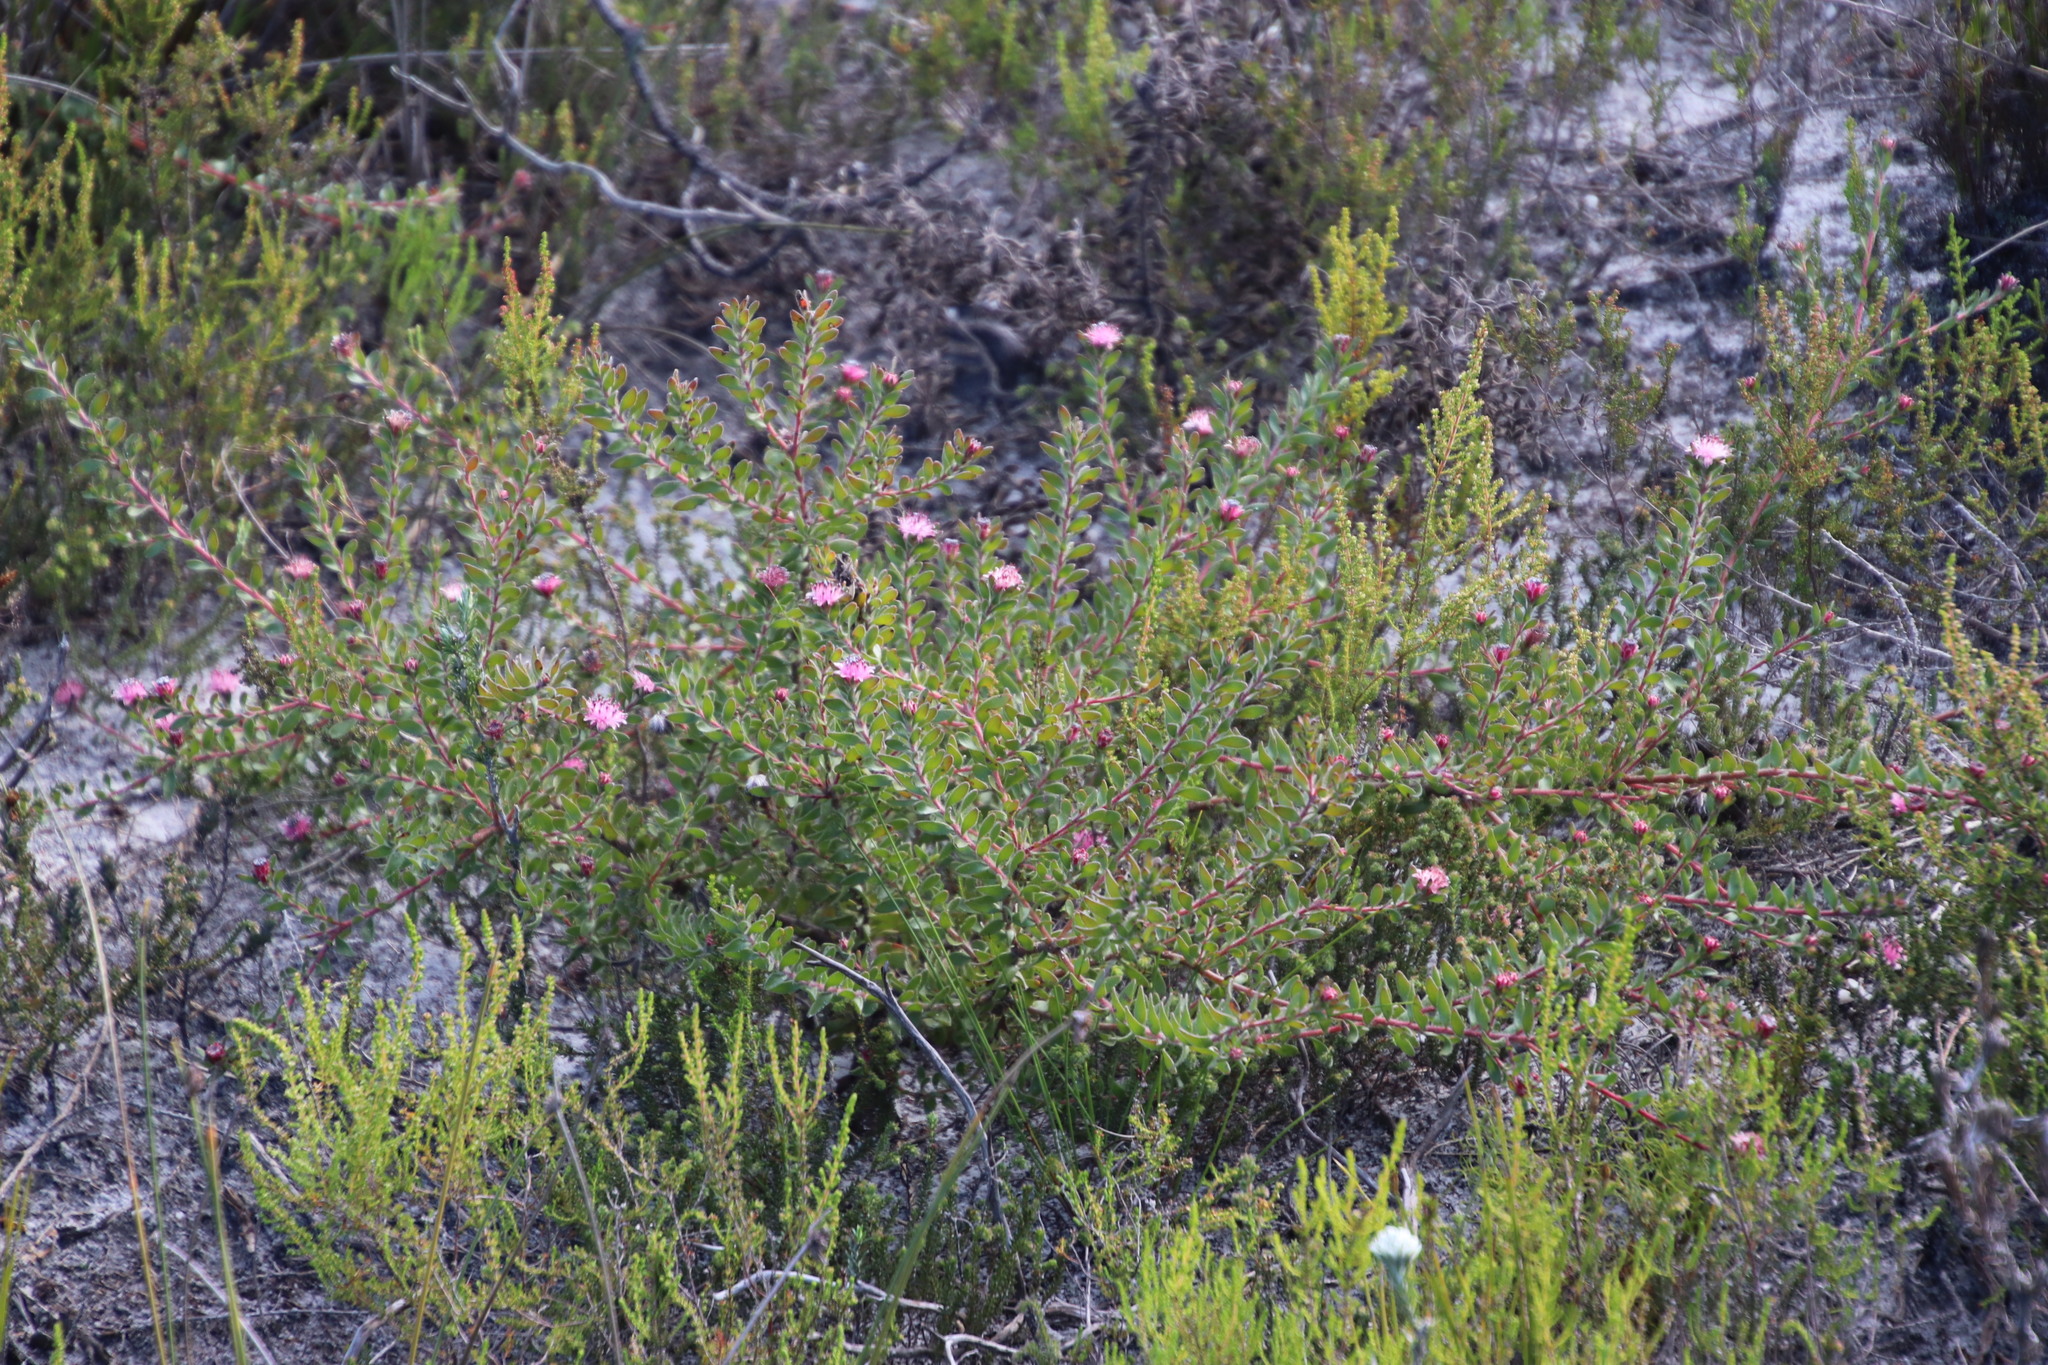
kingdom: Plantae
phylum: Tracheophyta
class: Magnoliopsida
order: Proteales
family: Proteaceae
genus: Diastella
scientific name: Diastella divaricata
